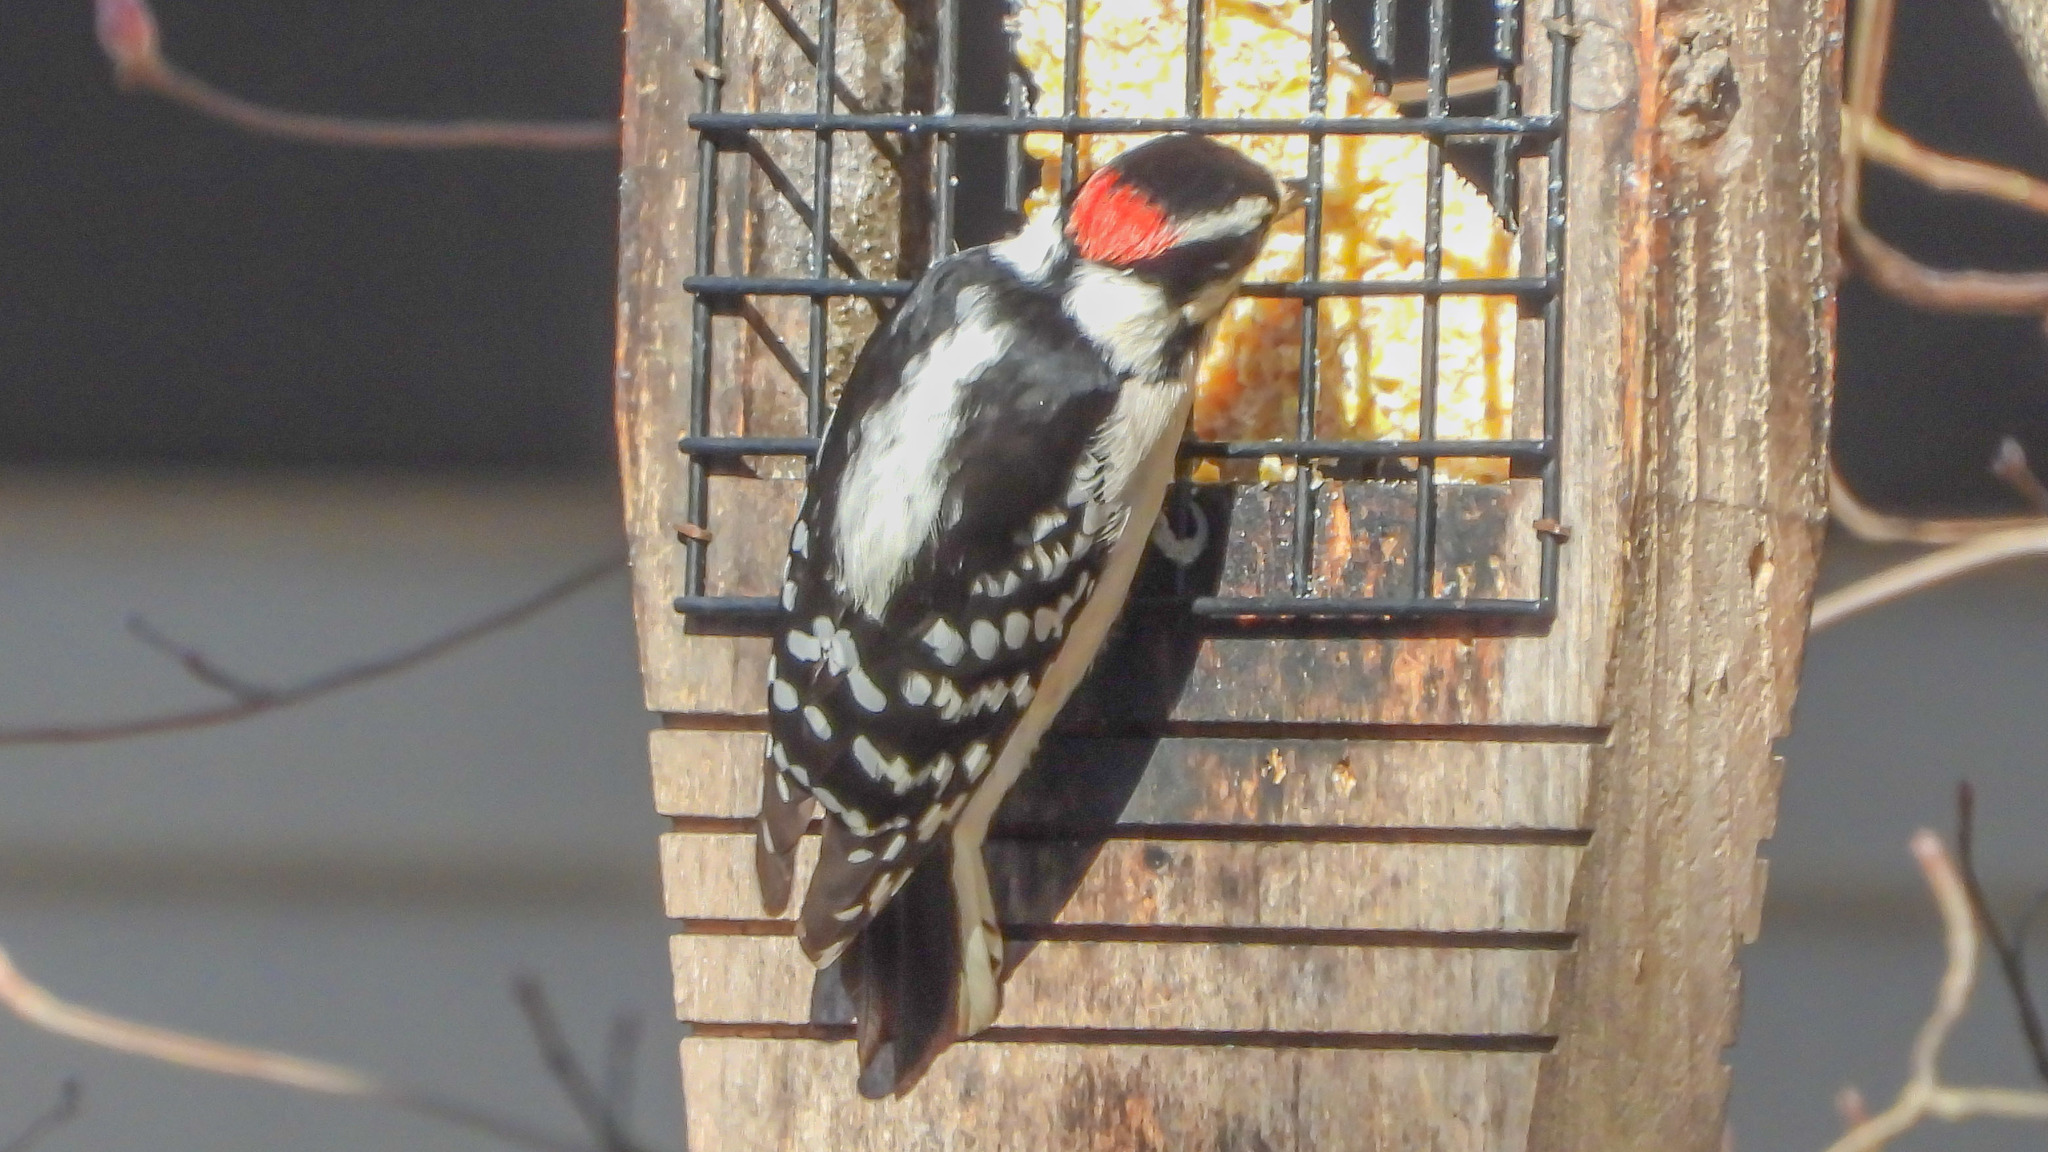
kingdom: Animalia
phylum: Chordata
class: Aves
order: Piciformes
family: Picidae
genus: Dryobates
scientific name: Dryobates pubescens
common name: Downy woodpecker
